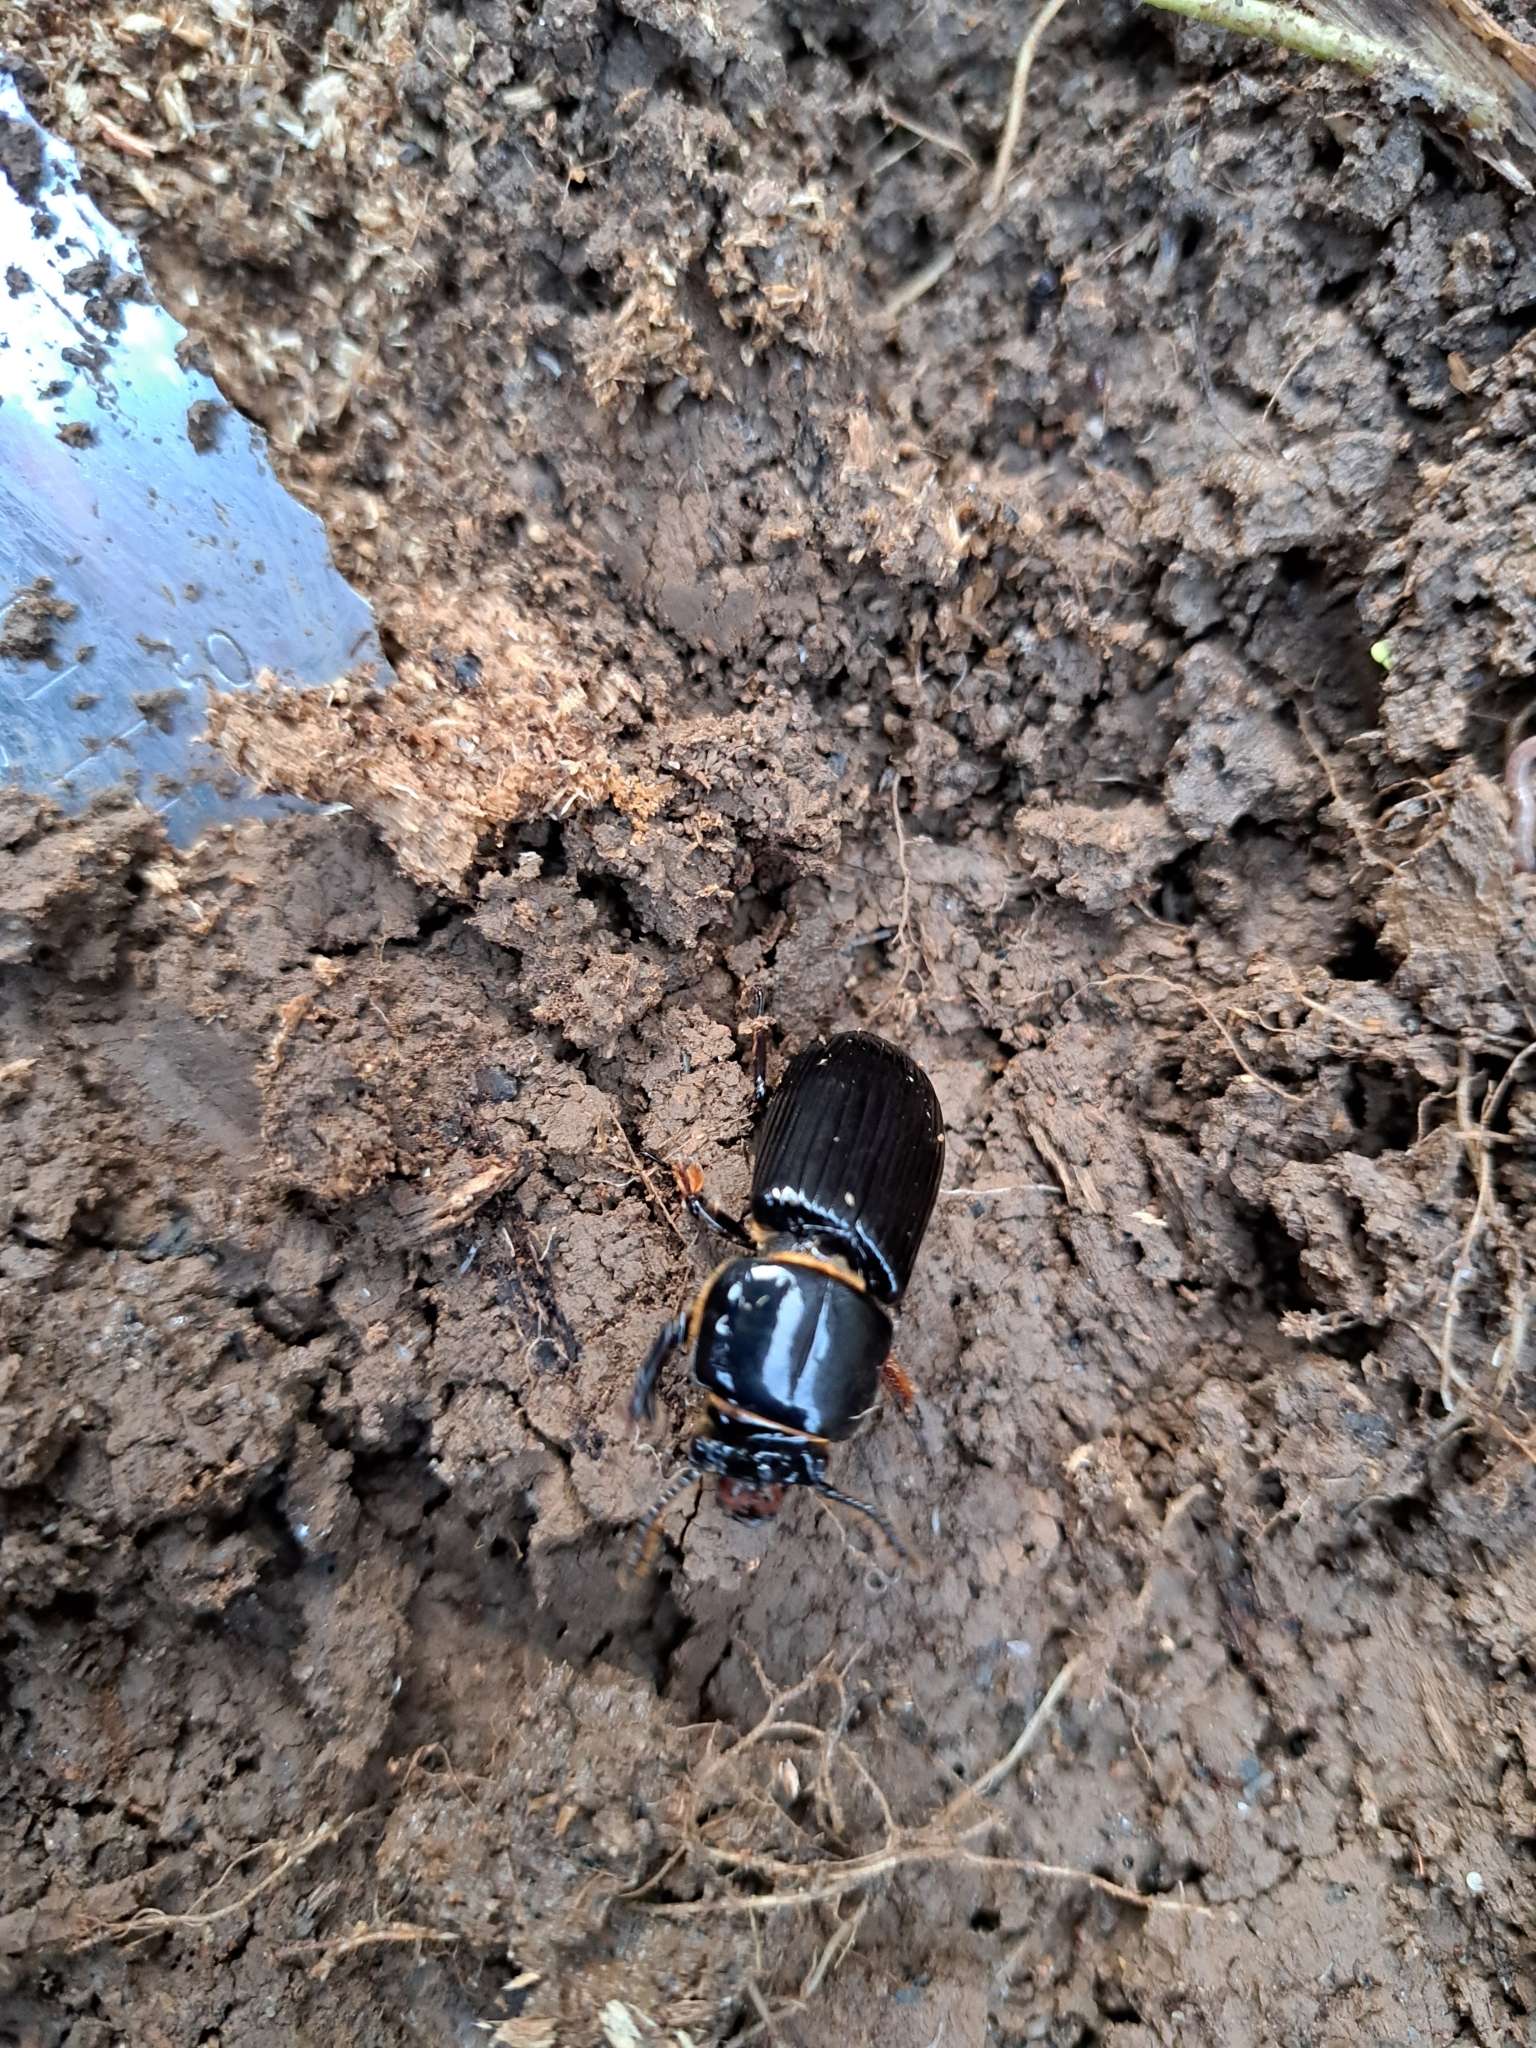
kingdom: Animalia
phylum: Arthropoda
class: Insecta
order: Coleoptera
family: Passalidae
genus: Odontotaenius
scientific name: Odontotaenius disjunctus
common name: Patent leather beetle
